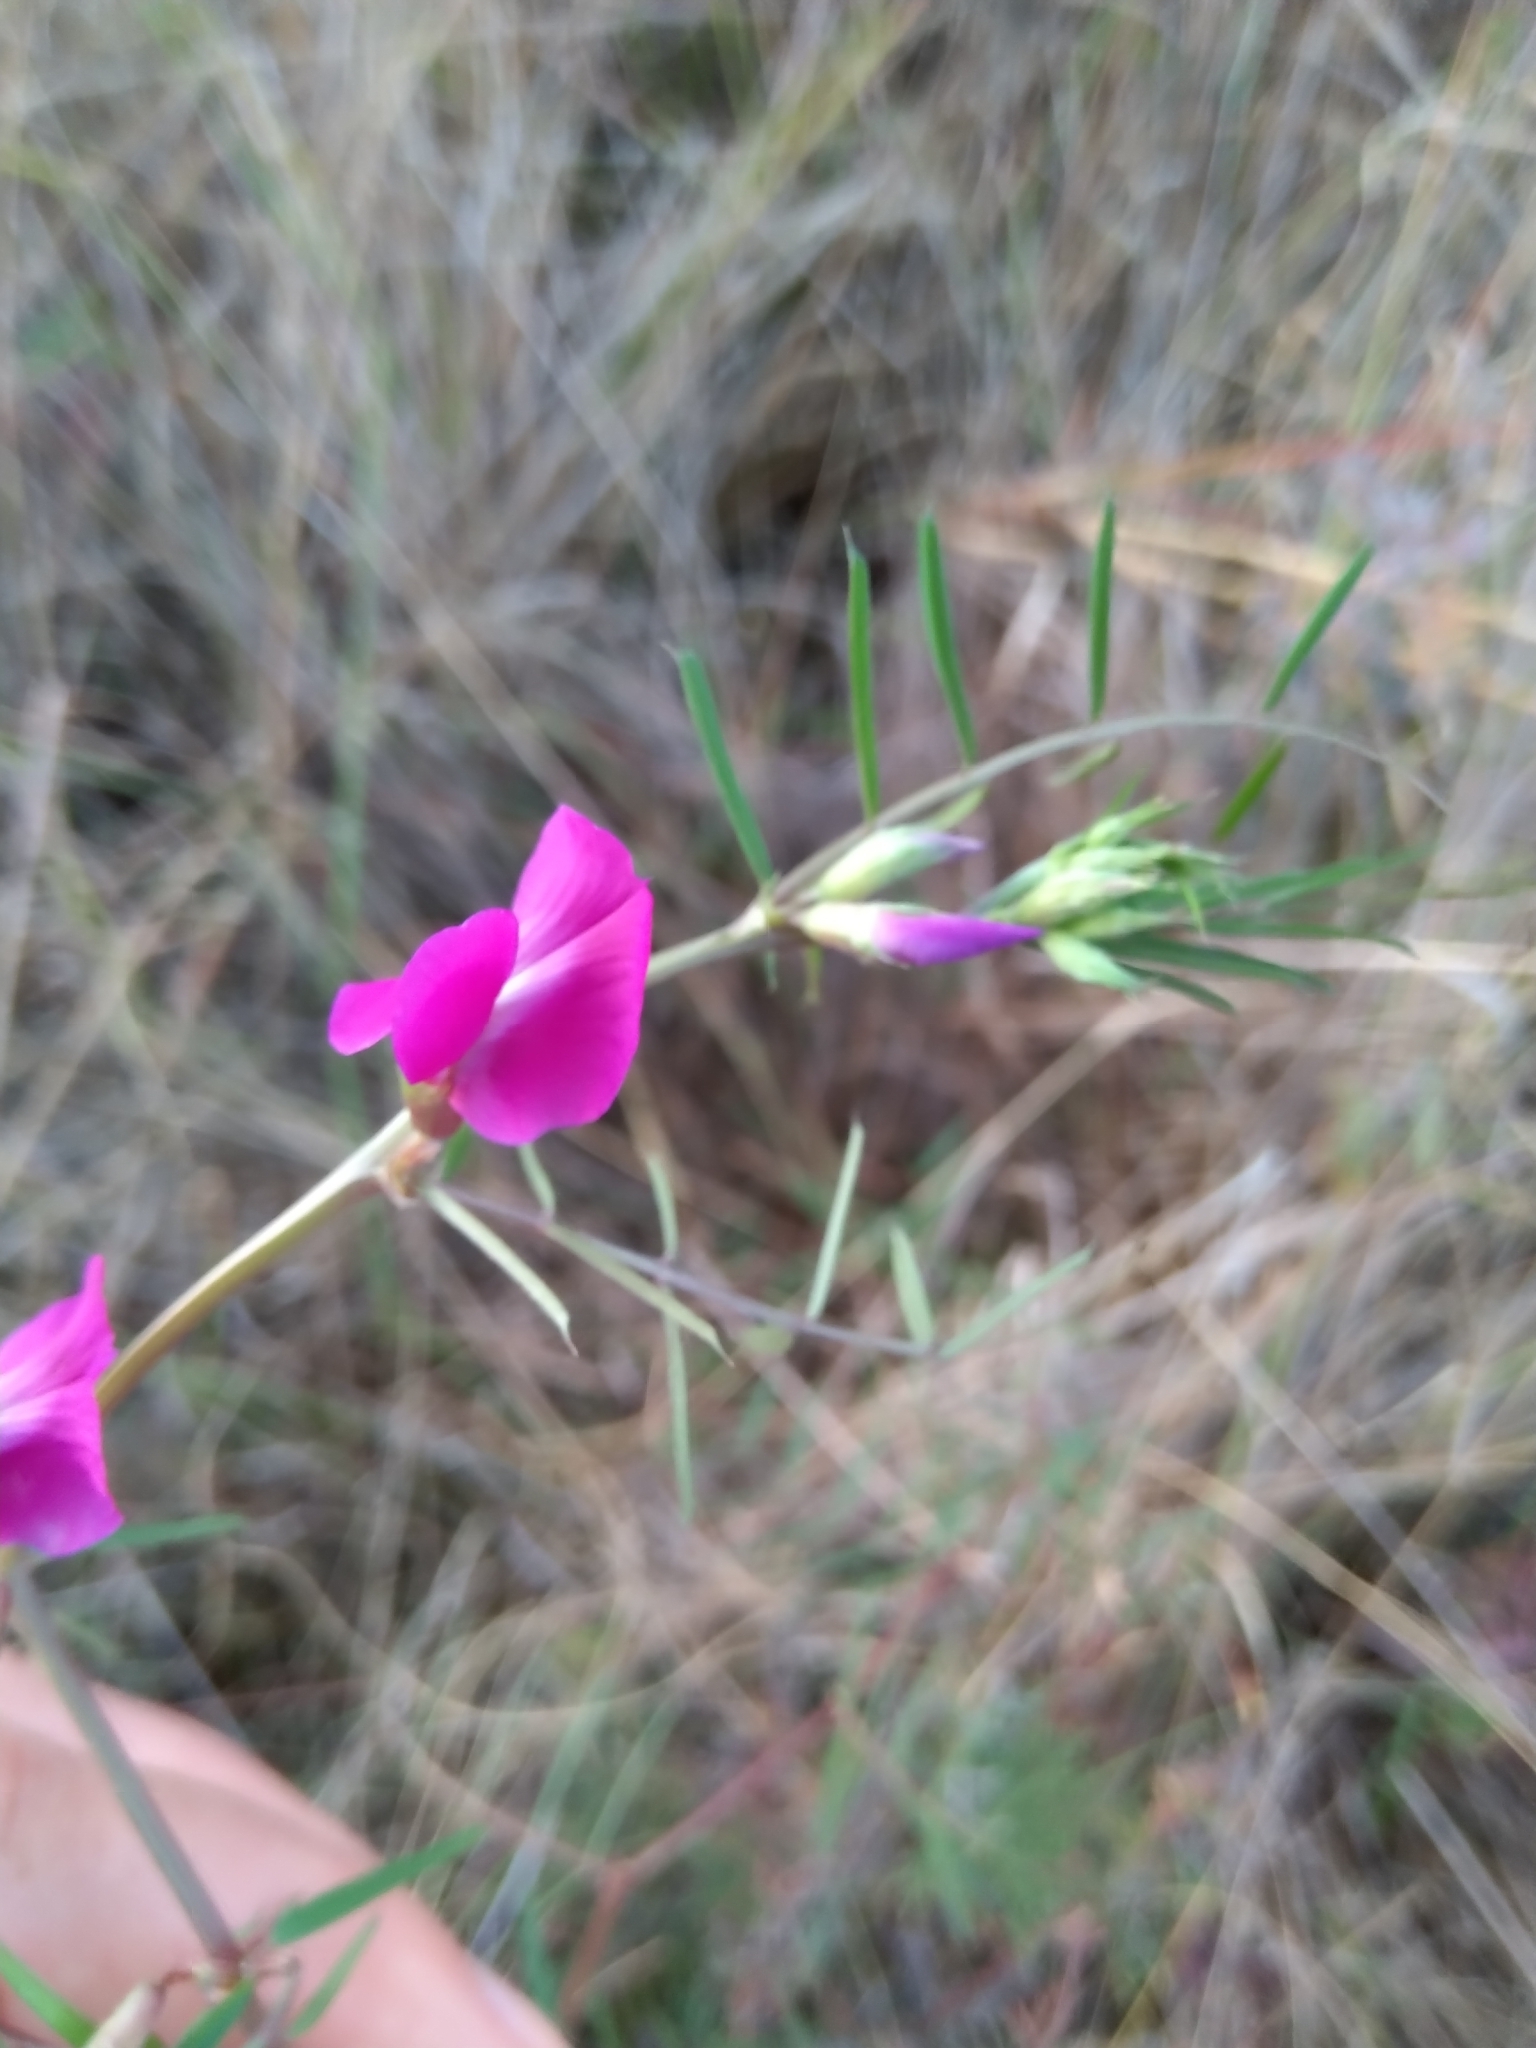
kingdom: Plantae
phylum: Tracheophyta
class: Magnoliopsida
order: Fabales
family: Fabaceae
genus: Vicia
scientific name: Vicia sativa
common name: Garden vetch
